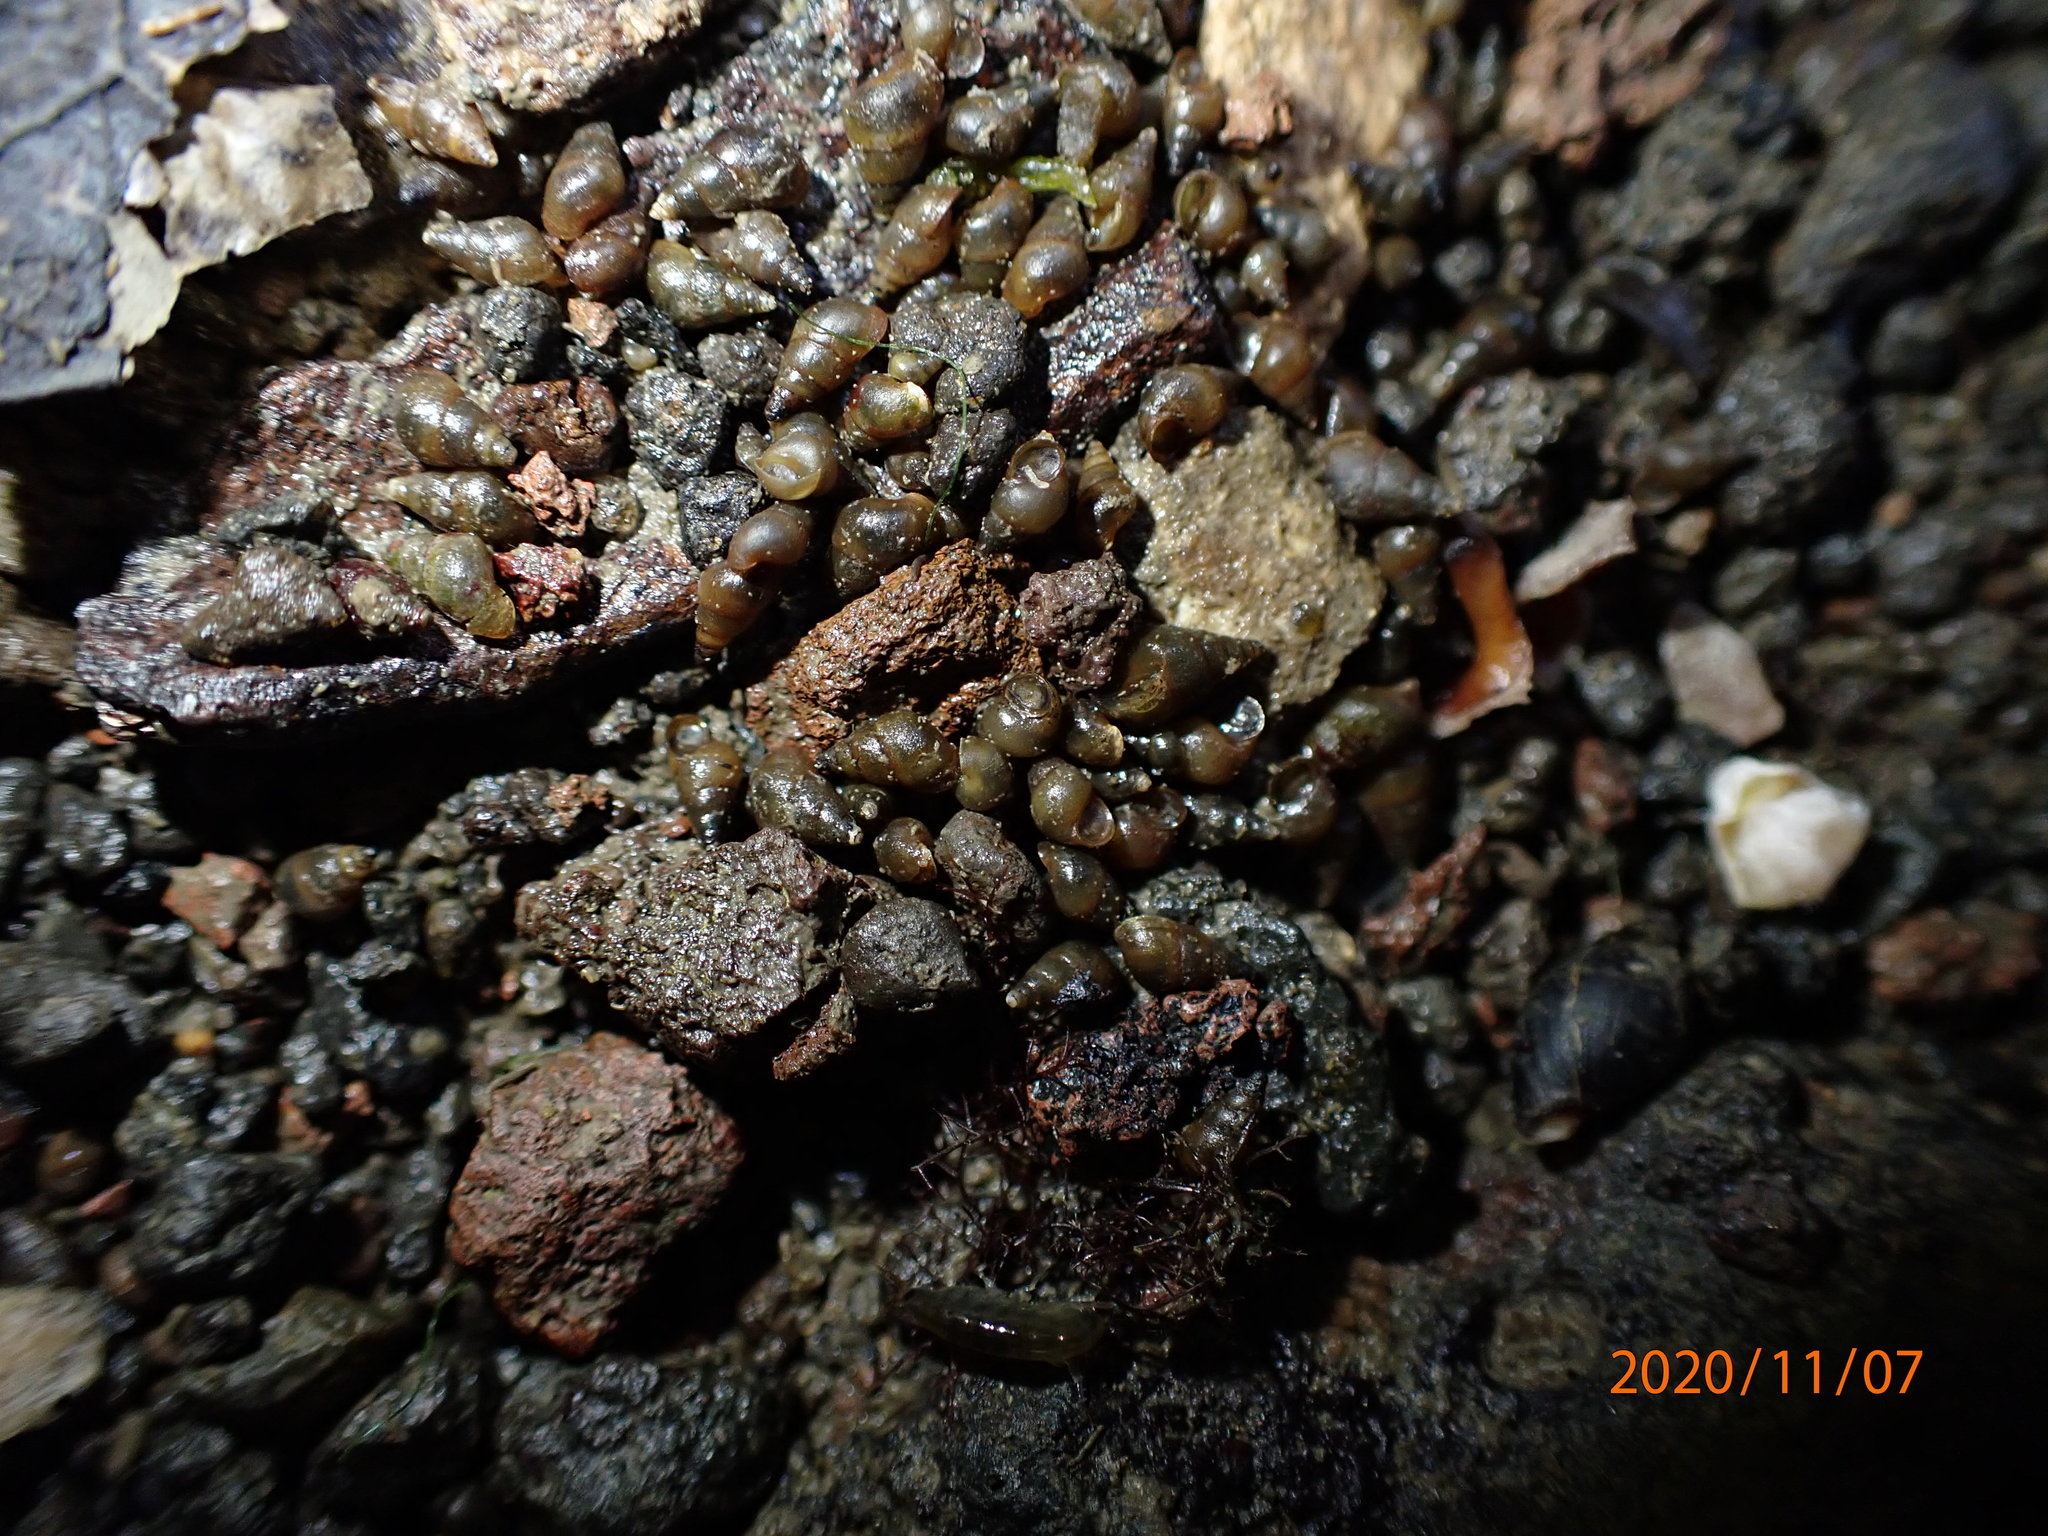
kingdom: Animalia
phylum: Mollusca
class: Gastropoda
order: Littorinimorpha
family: Tateidae
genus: Potamopyrgus
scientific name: Potamopyrgus estuarinus
